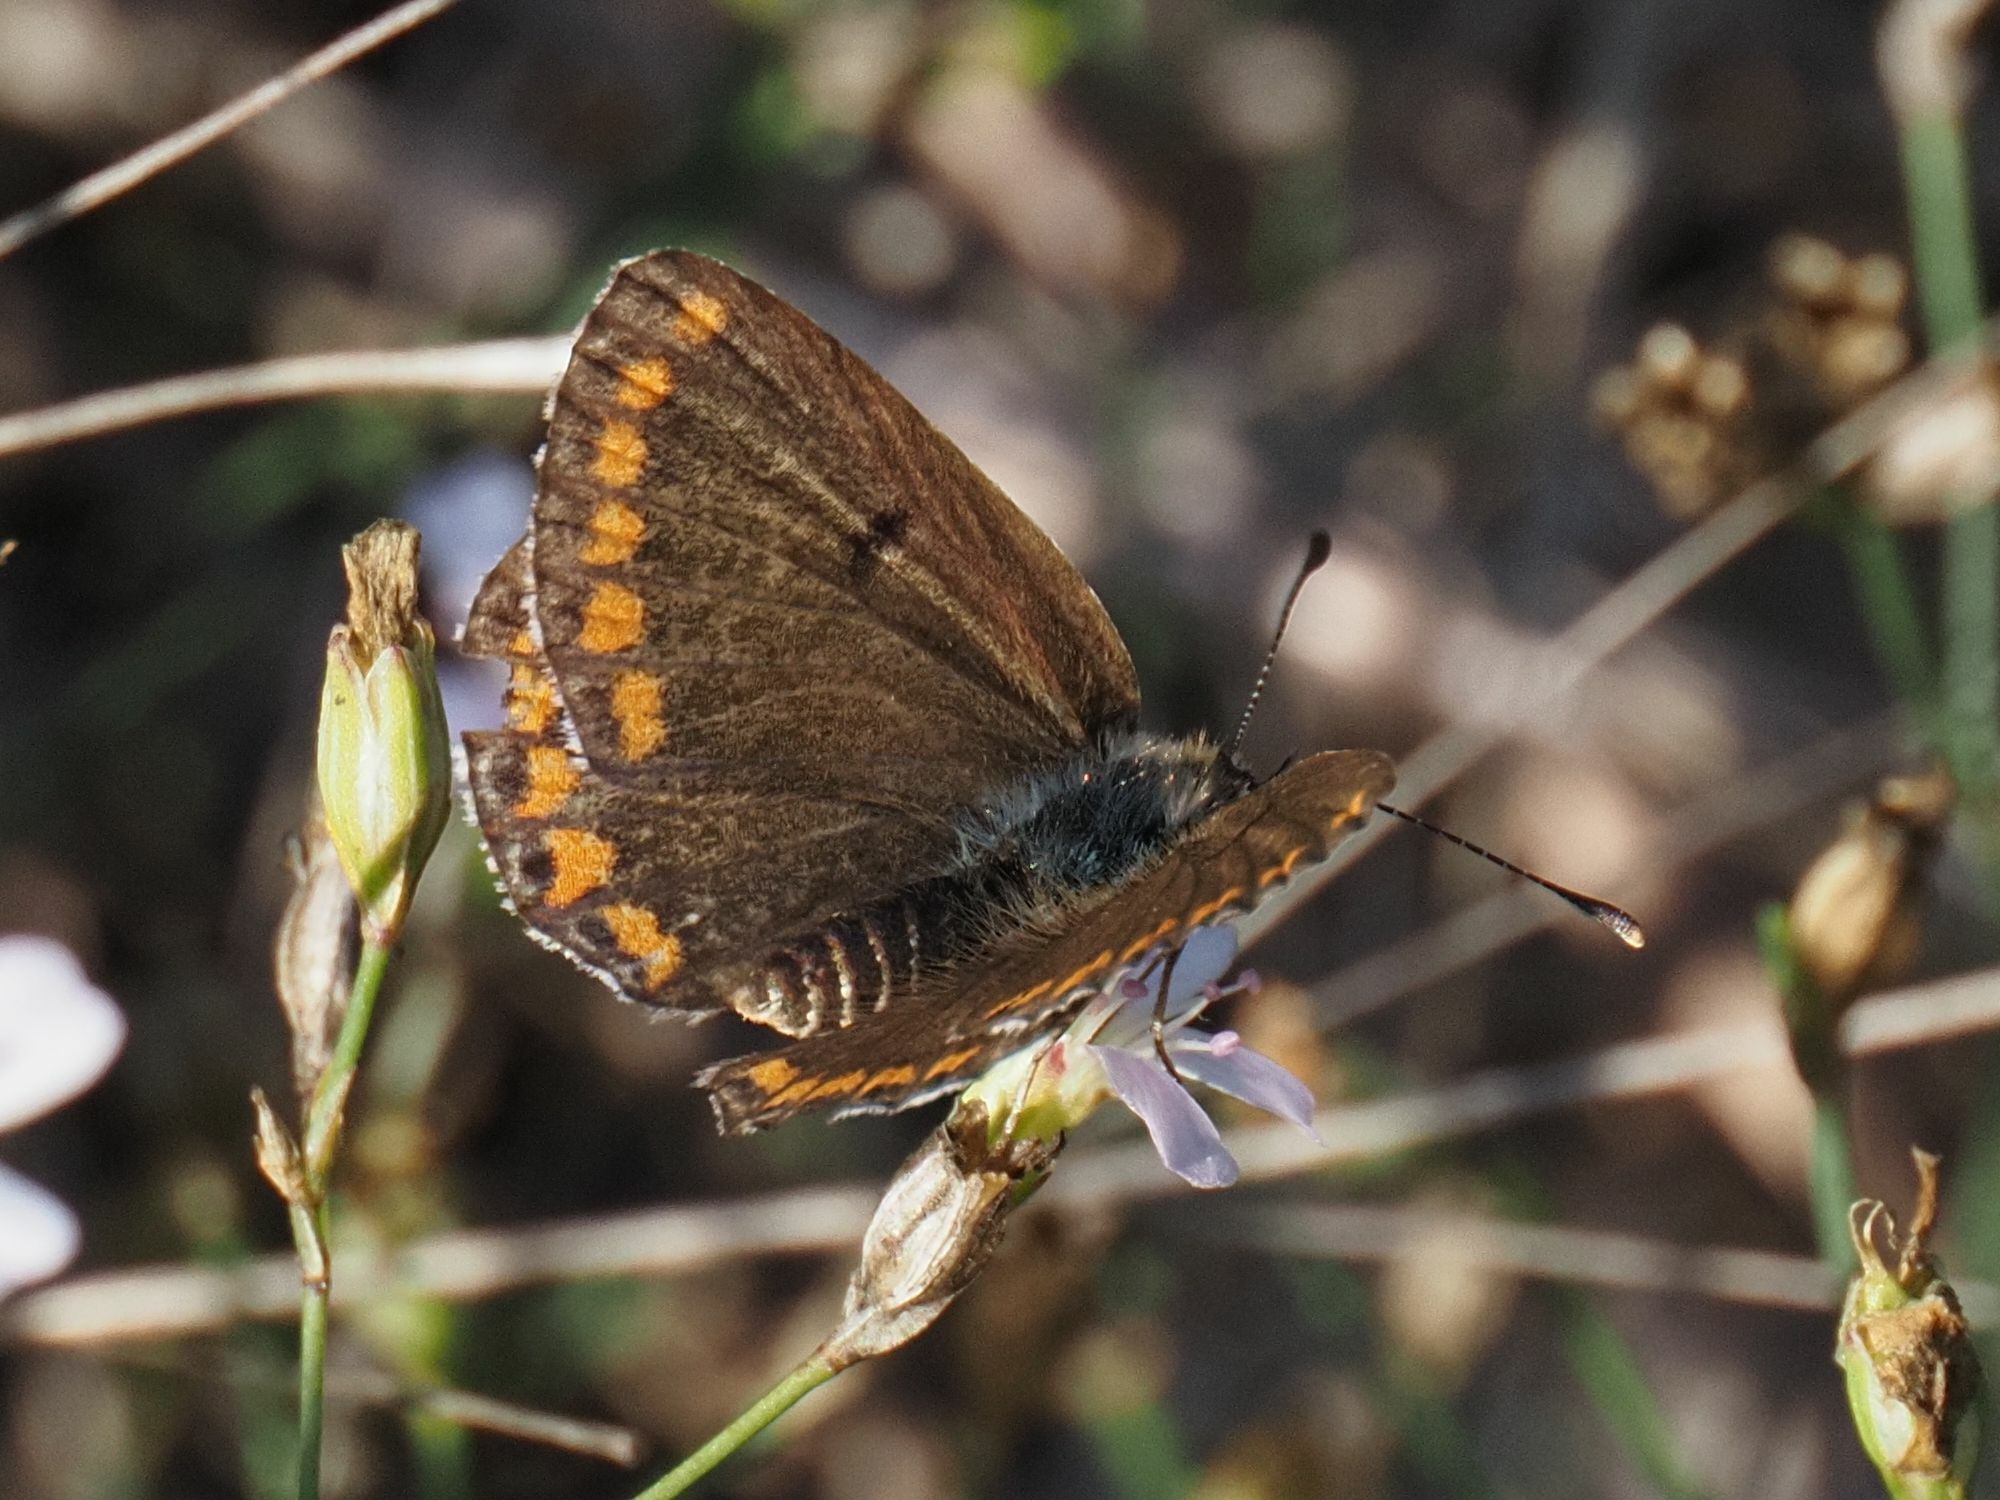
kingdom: Animalia
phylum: Arthropoda
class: Insecta
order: Lepidoptera
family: Lycaenidae
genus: Aricia
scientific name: Aricia agestis
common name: Brown argus
